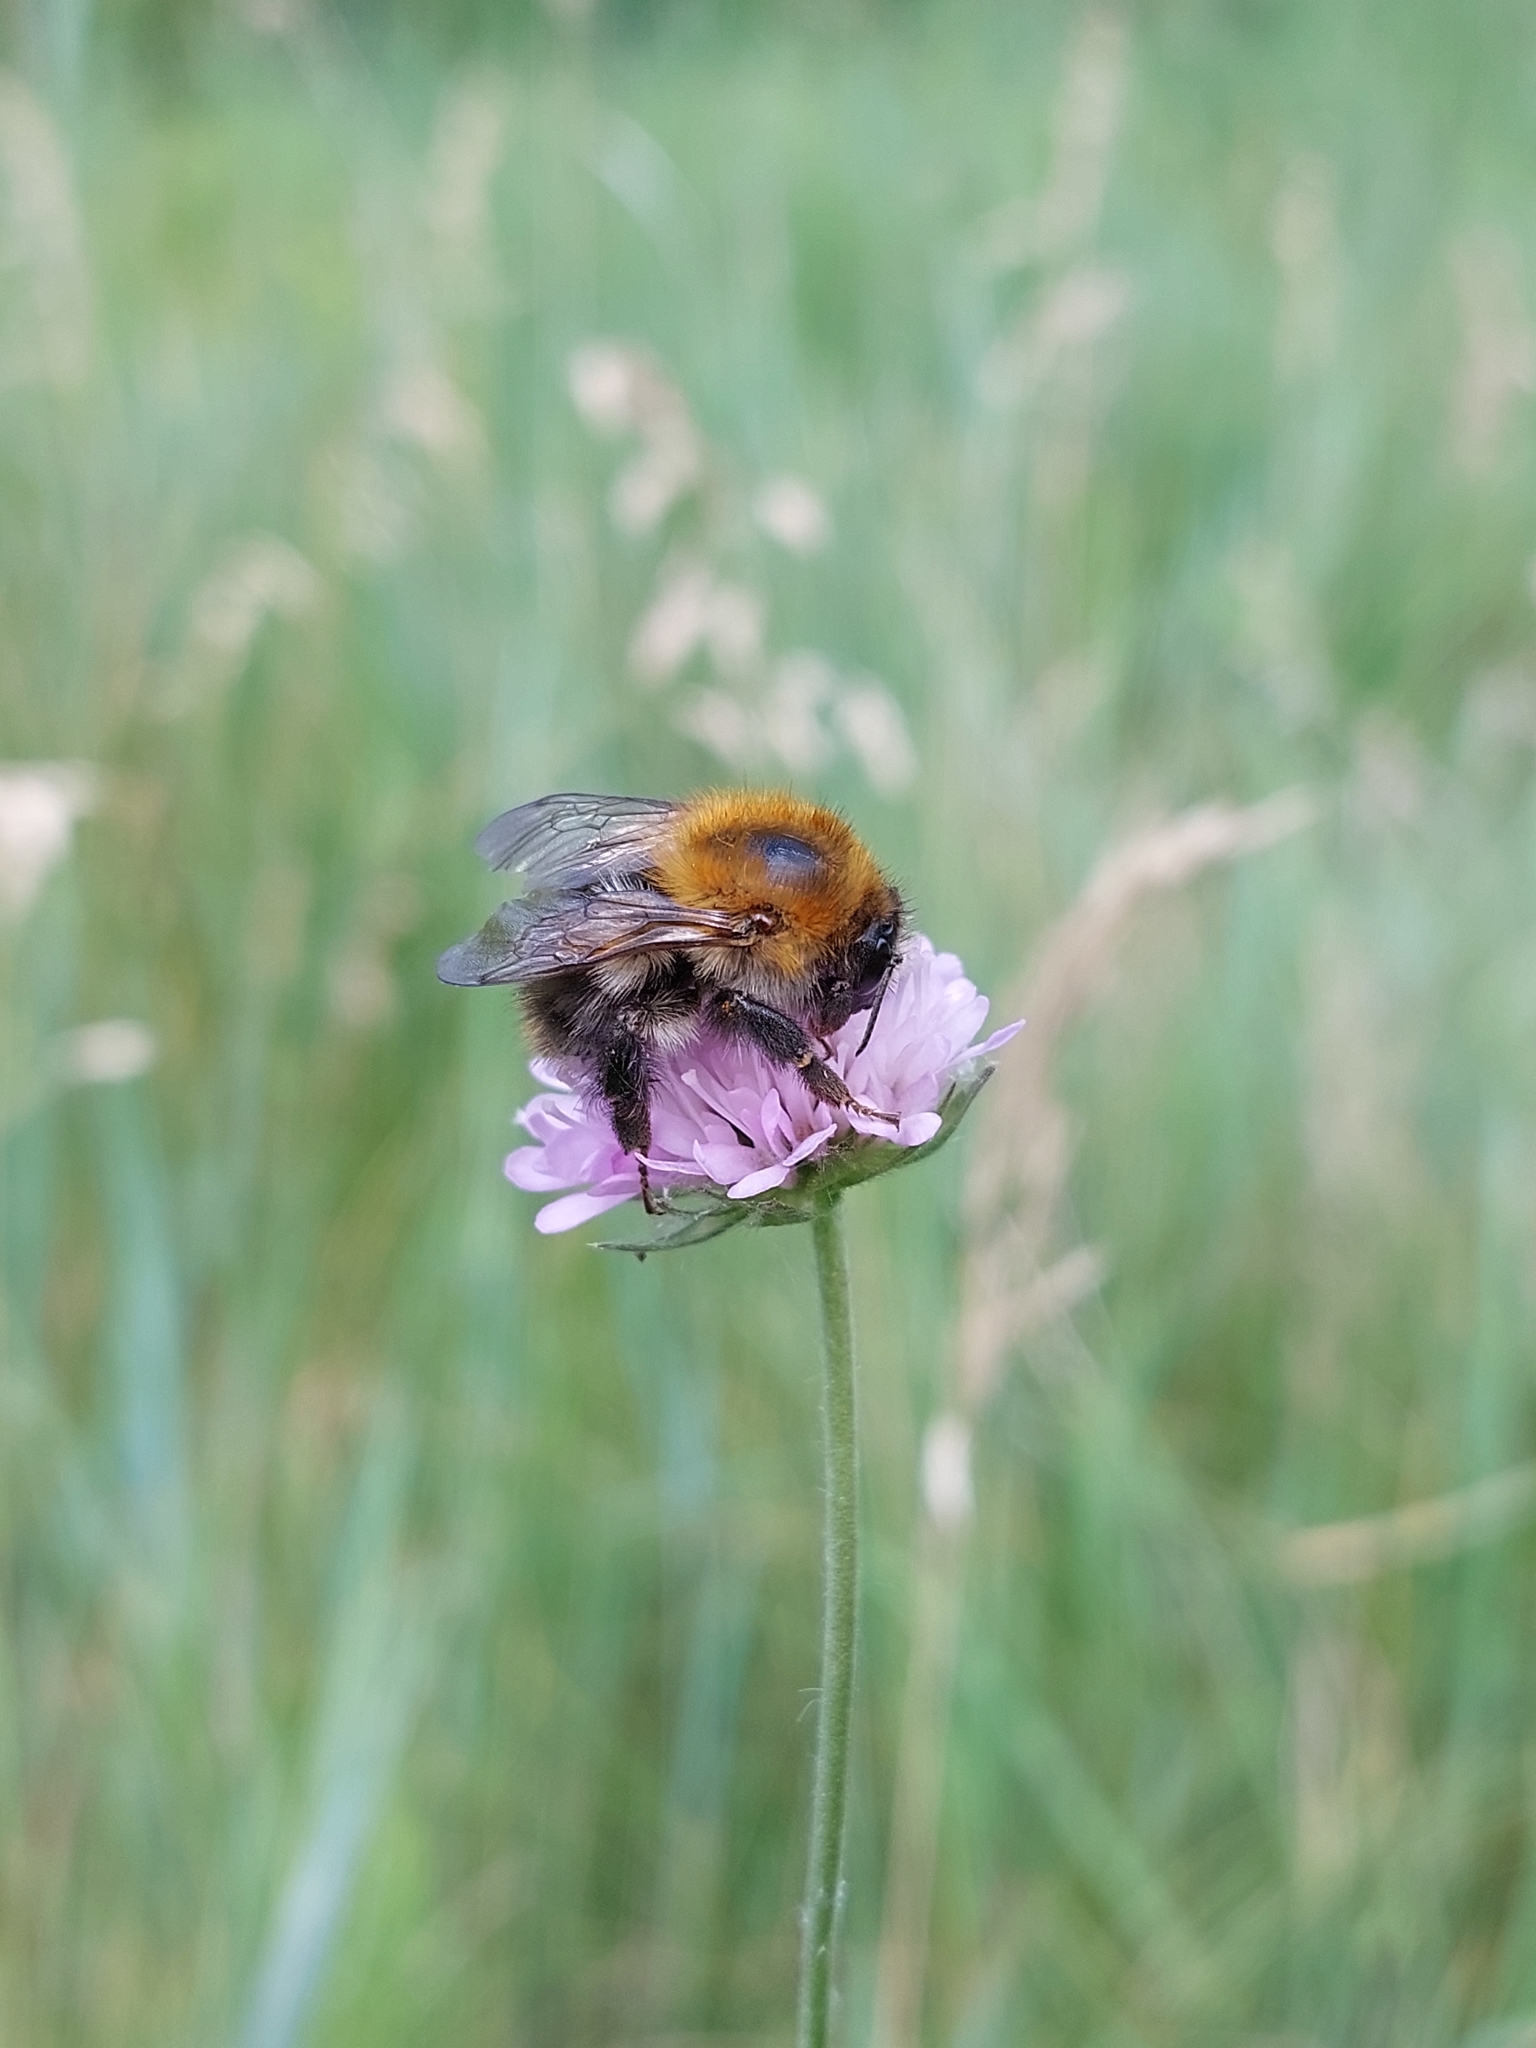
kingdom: Animalia
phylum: Arthropoda
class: Insecta
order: Hymenoptera
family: Apidae
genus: Bombus
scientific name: Bombus pascuorum
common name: Common carder bee
